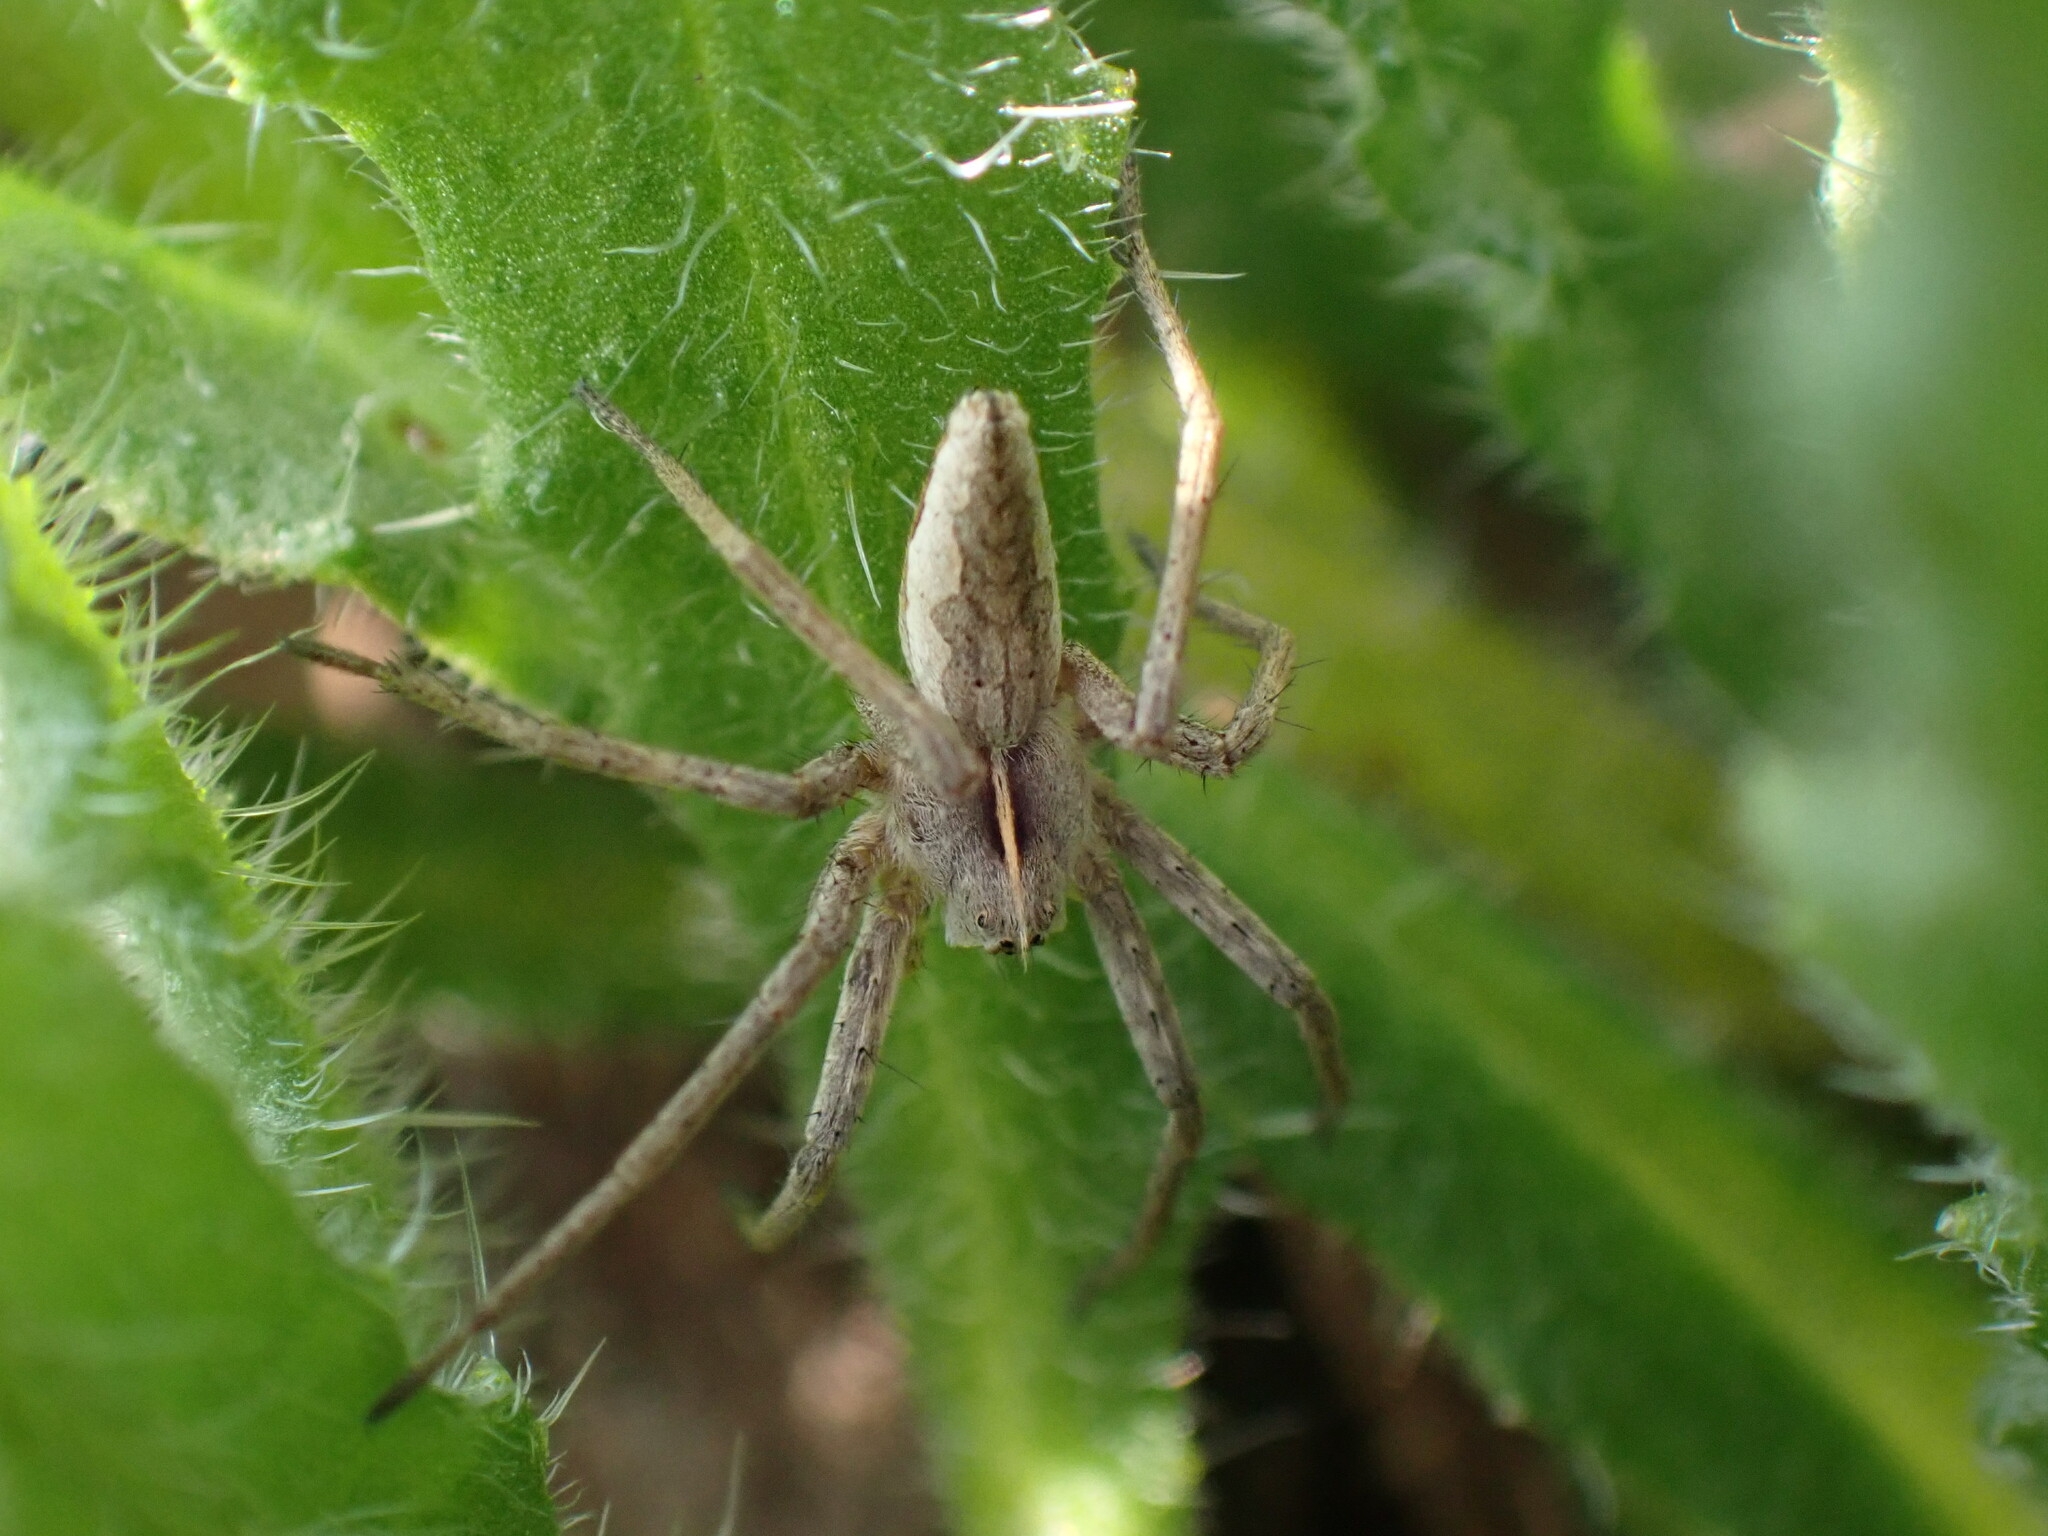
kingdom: Animalia
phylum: Arthropoda
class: Arachnida
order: Araneae
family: Pisauridae
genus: Pisaura
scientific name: Pisaura mirabilis
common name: Tent spider
